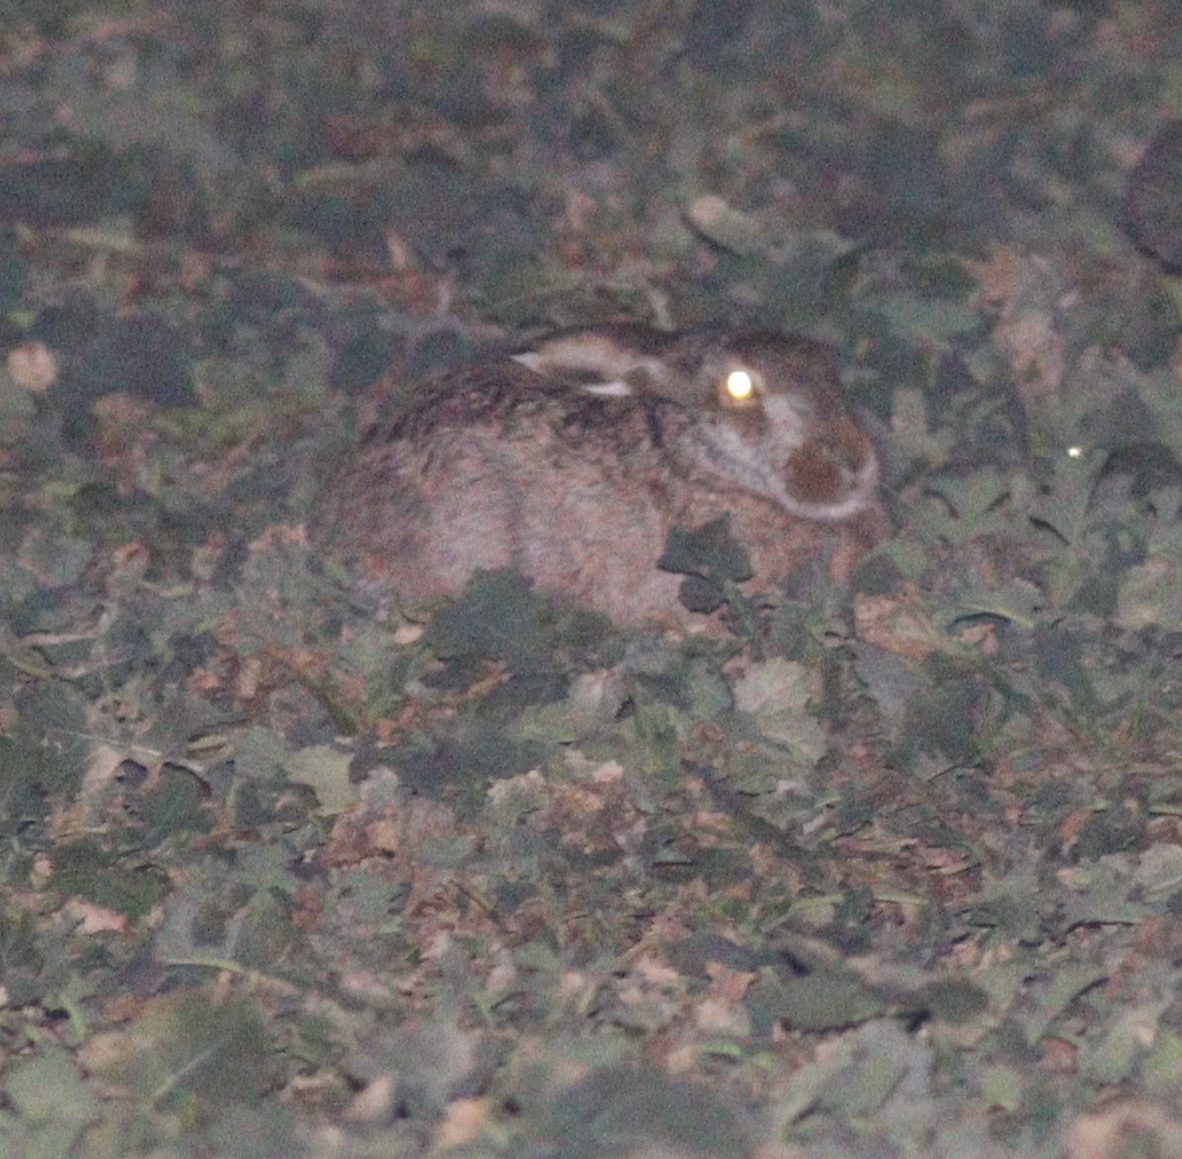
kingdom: Animalia
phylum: Chordata
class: Mammalia
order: Lagomorpha
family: Leporidae
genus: Lepus
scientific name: Lepus europaeus
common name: European hare
